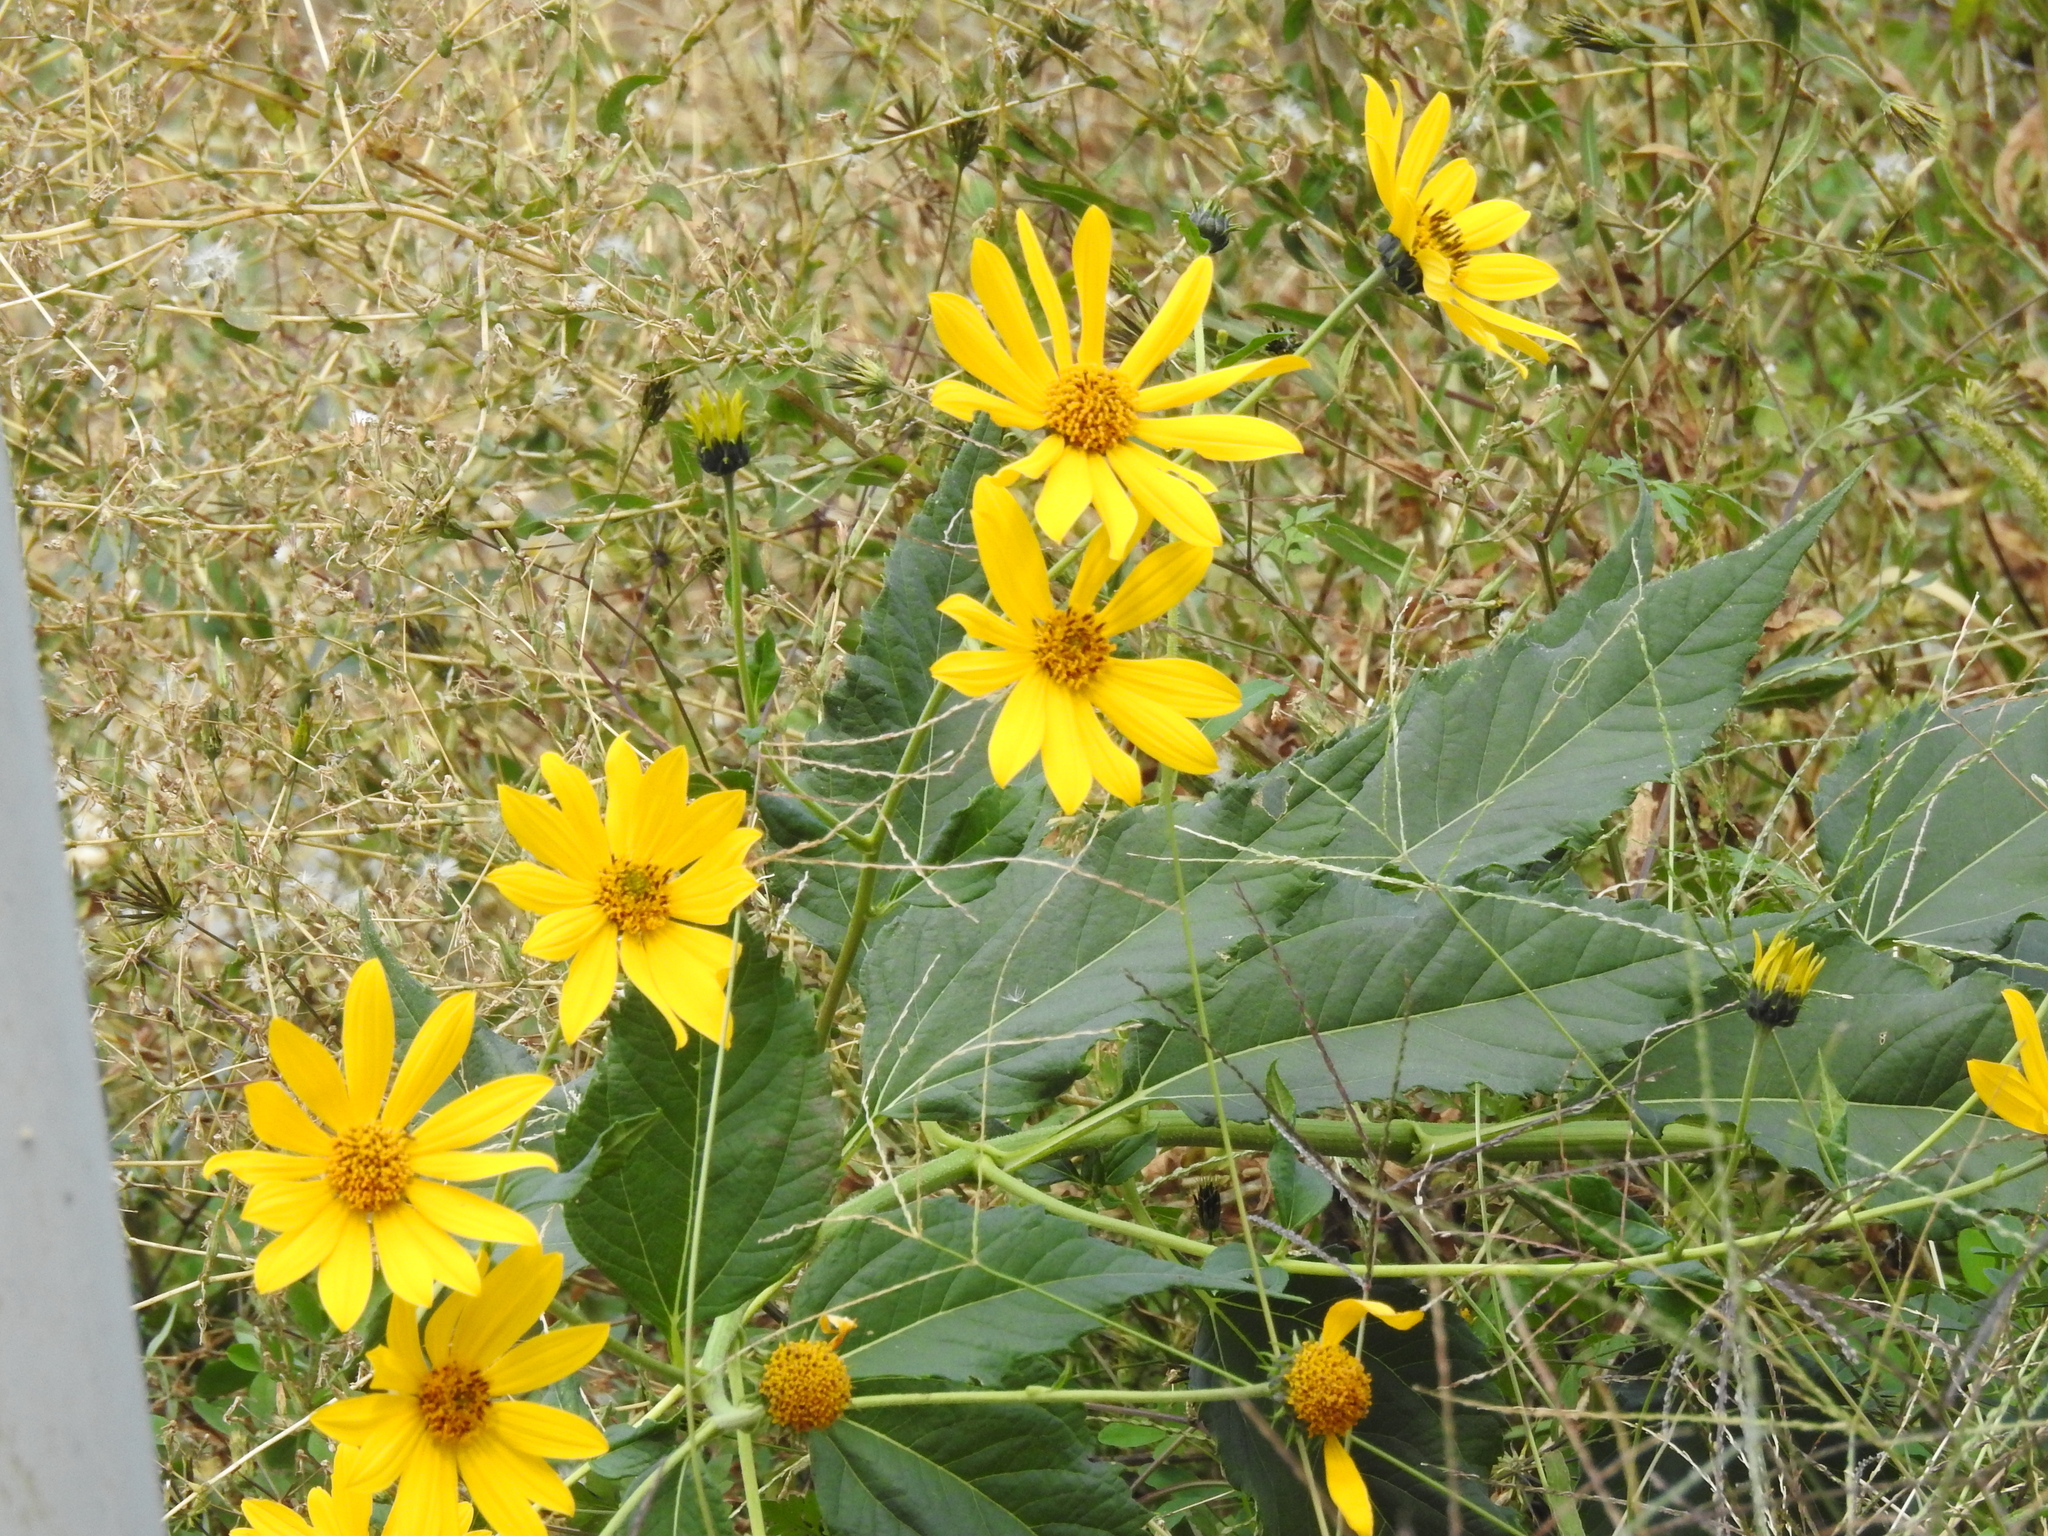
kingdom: Plantae
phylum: Tracheophyta
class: Magnoliopsida
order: Asterales
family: Asteraceae
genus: Helianthus
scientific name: Helianthus tuberosus
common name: Jerusalem artichoke
